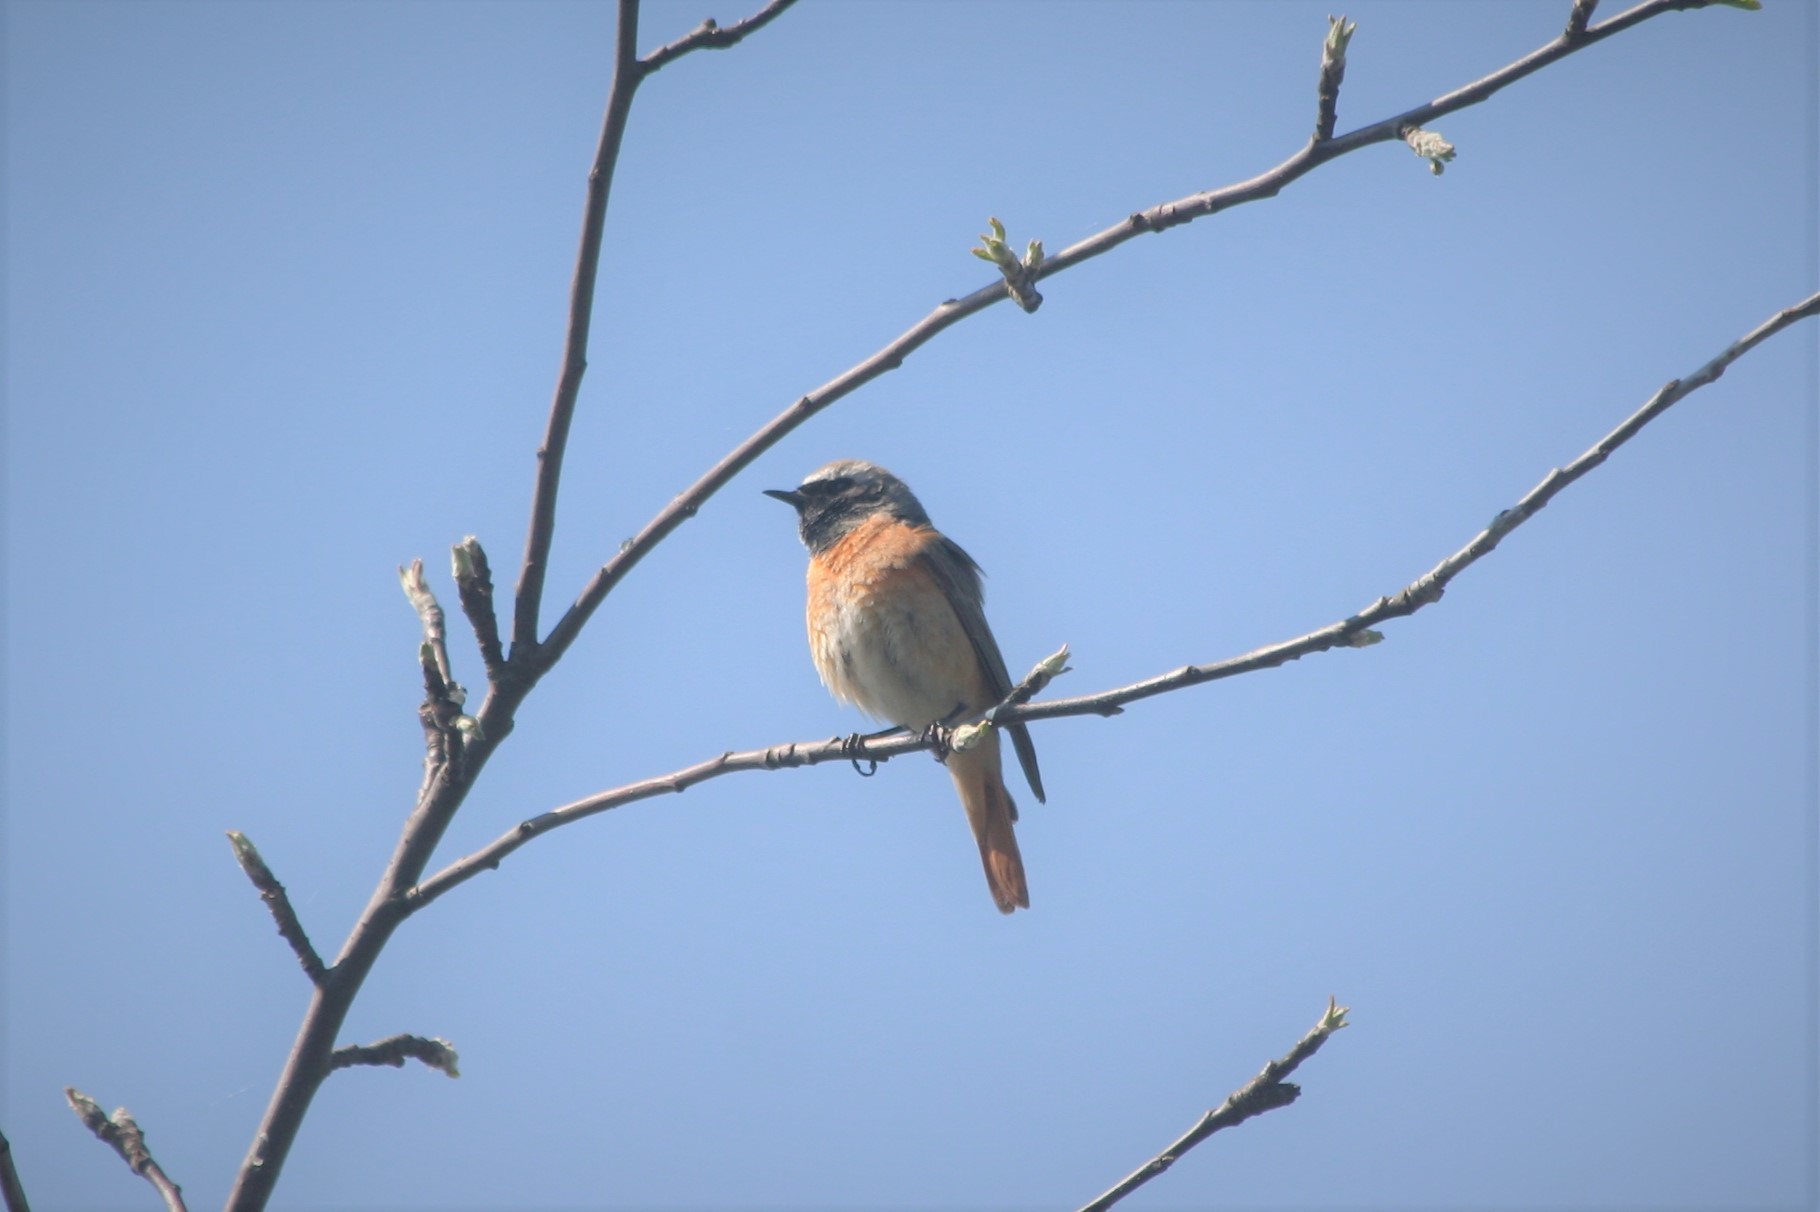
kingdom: Animalia
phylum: Chordata
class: Aves
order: Passeriformes
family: Muscicapidae
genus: Phoenicurus
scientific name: Phoenicurus phoenicurus
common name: Common redstart
